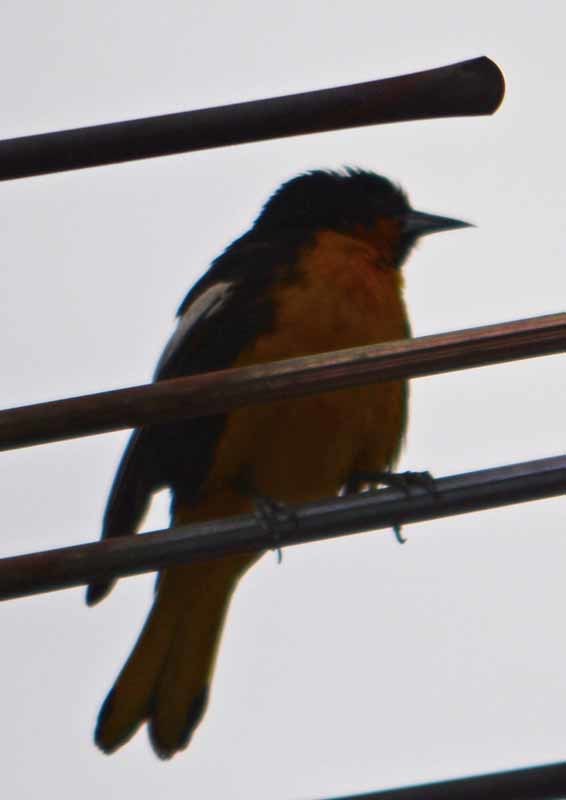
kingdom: Animalia
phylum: Chordata
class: Aves
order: Passeriformes
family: Icteridae
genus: Icterus
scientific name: Icterus abeillei
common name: Black-backed oriole
